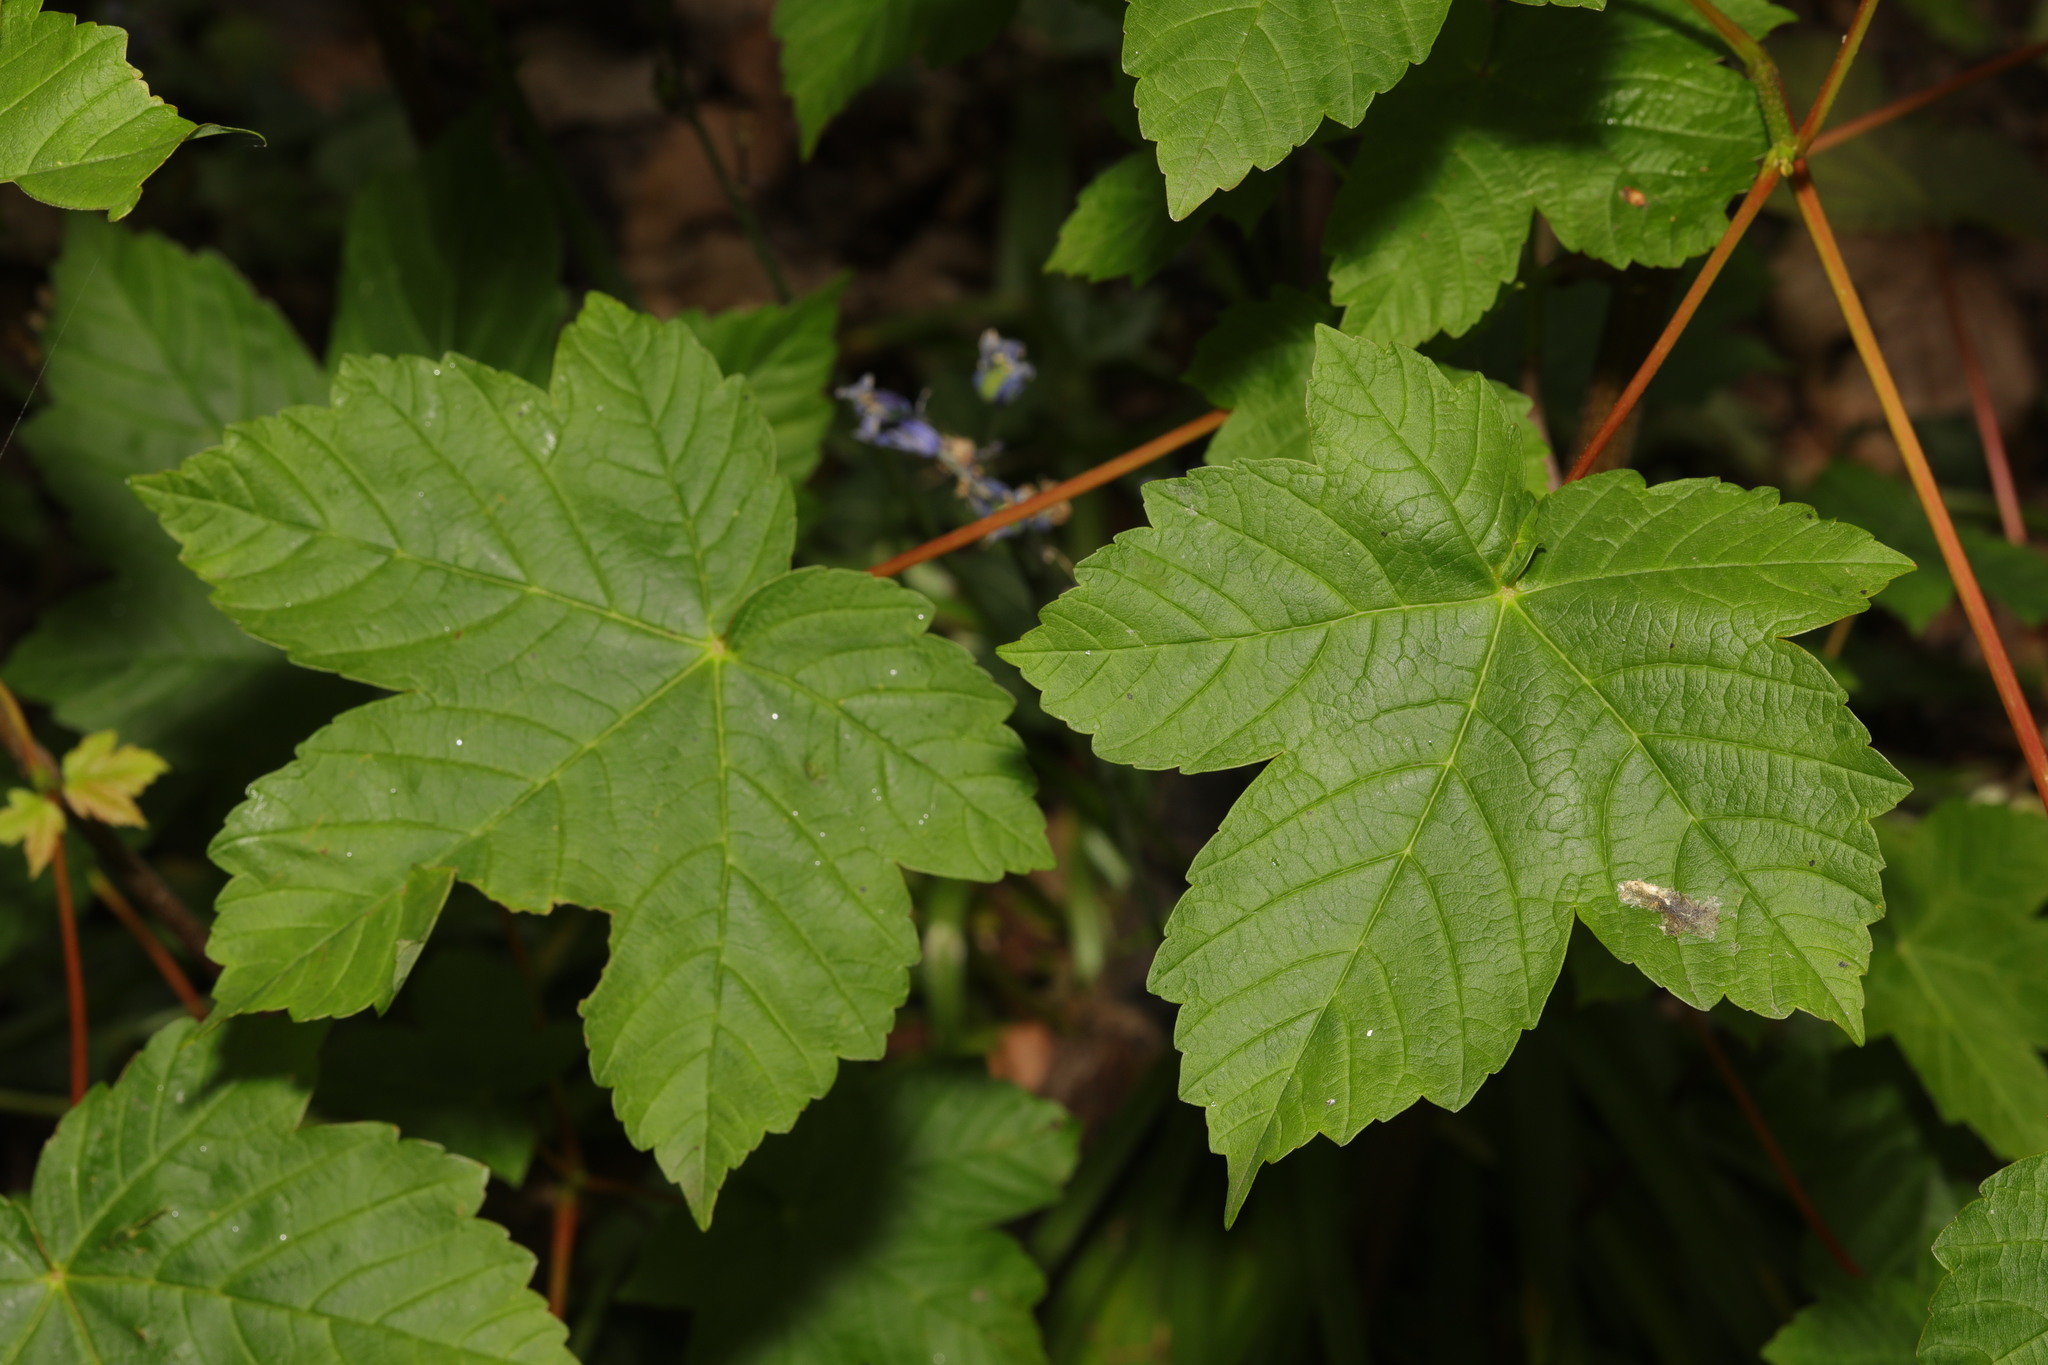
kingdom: Plantae
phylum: Tracheophyta
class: Magnoliopsida
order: Sapindales
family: Sapindaceae
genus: Acer
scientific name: Acer pseudoplatanus
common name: Sycamore
